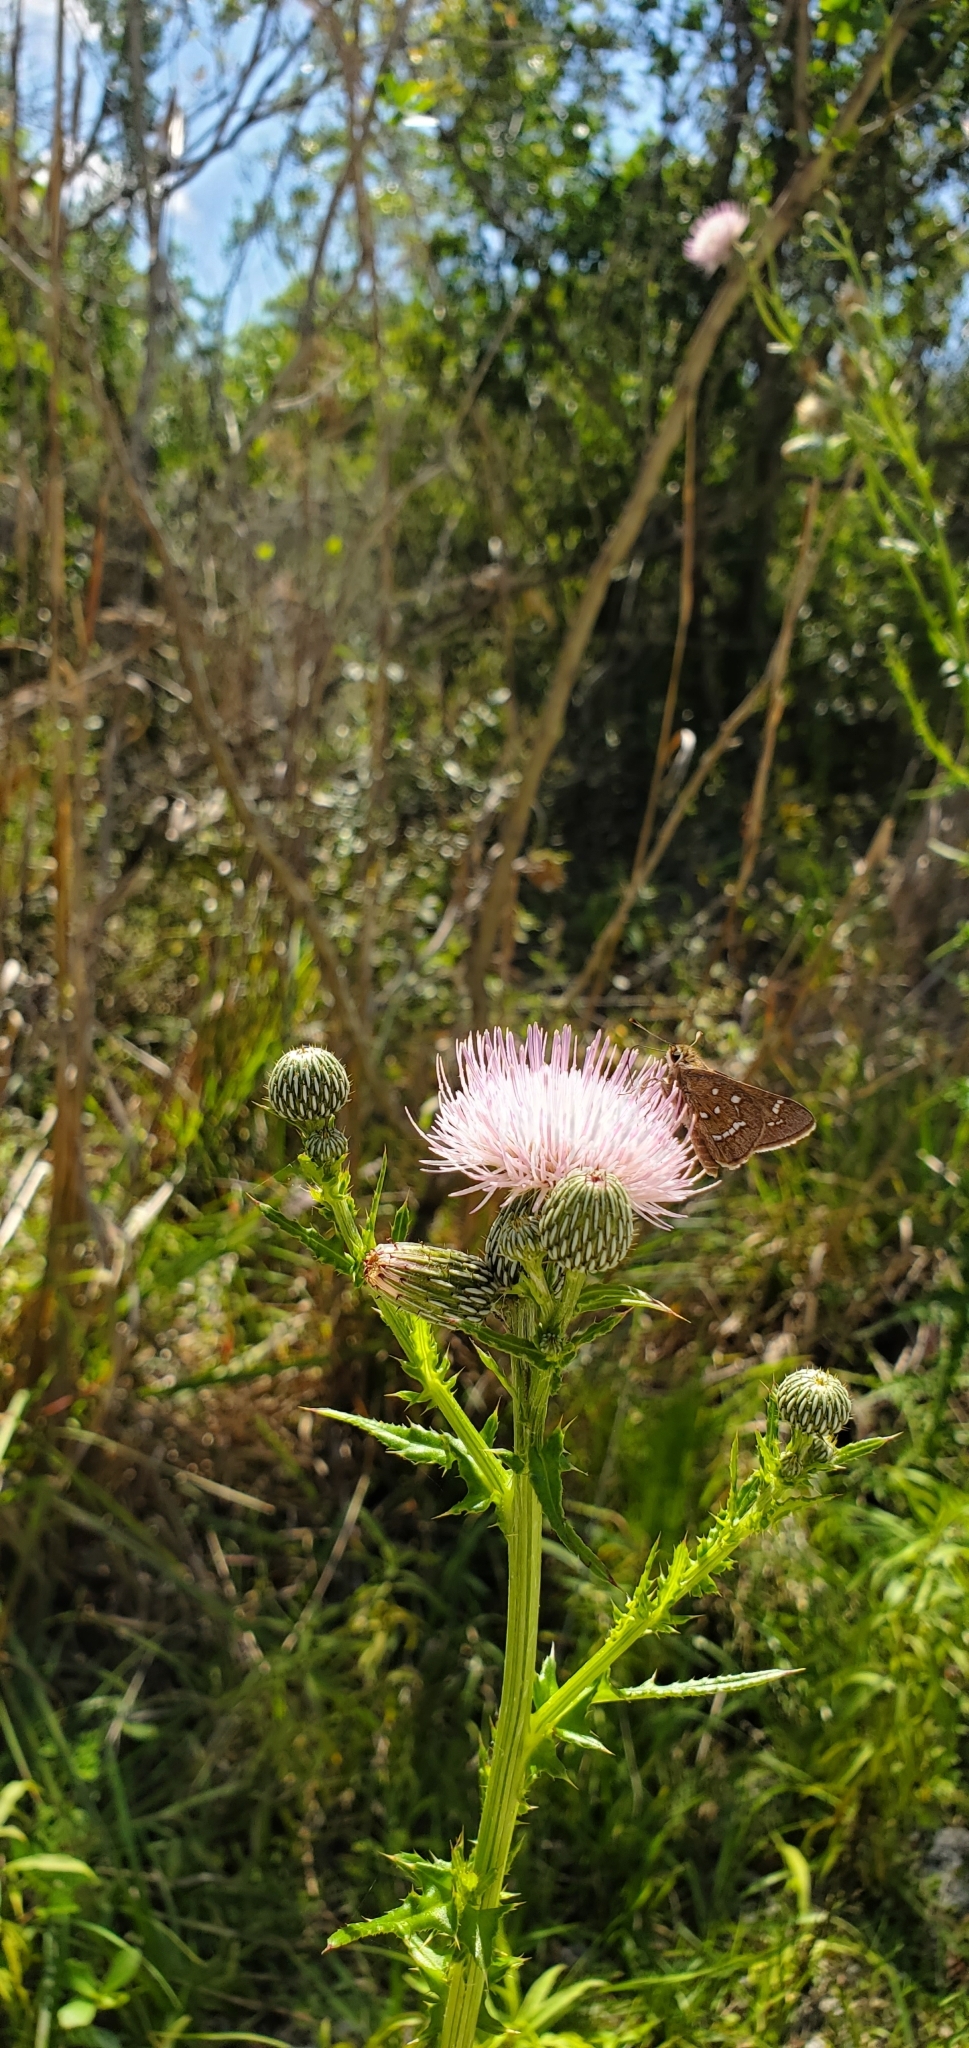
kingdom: Animalia
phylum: Arthropoda
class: Insecta
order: Lepidoptera
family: Hesperiidae
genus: Atrytonopsis
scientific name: Atrytonopsis loammi
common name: Loammi skipper
